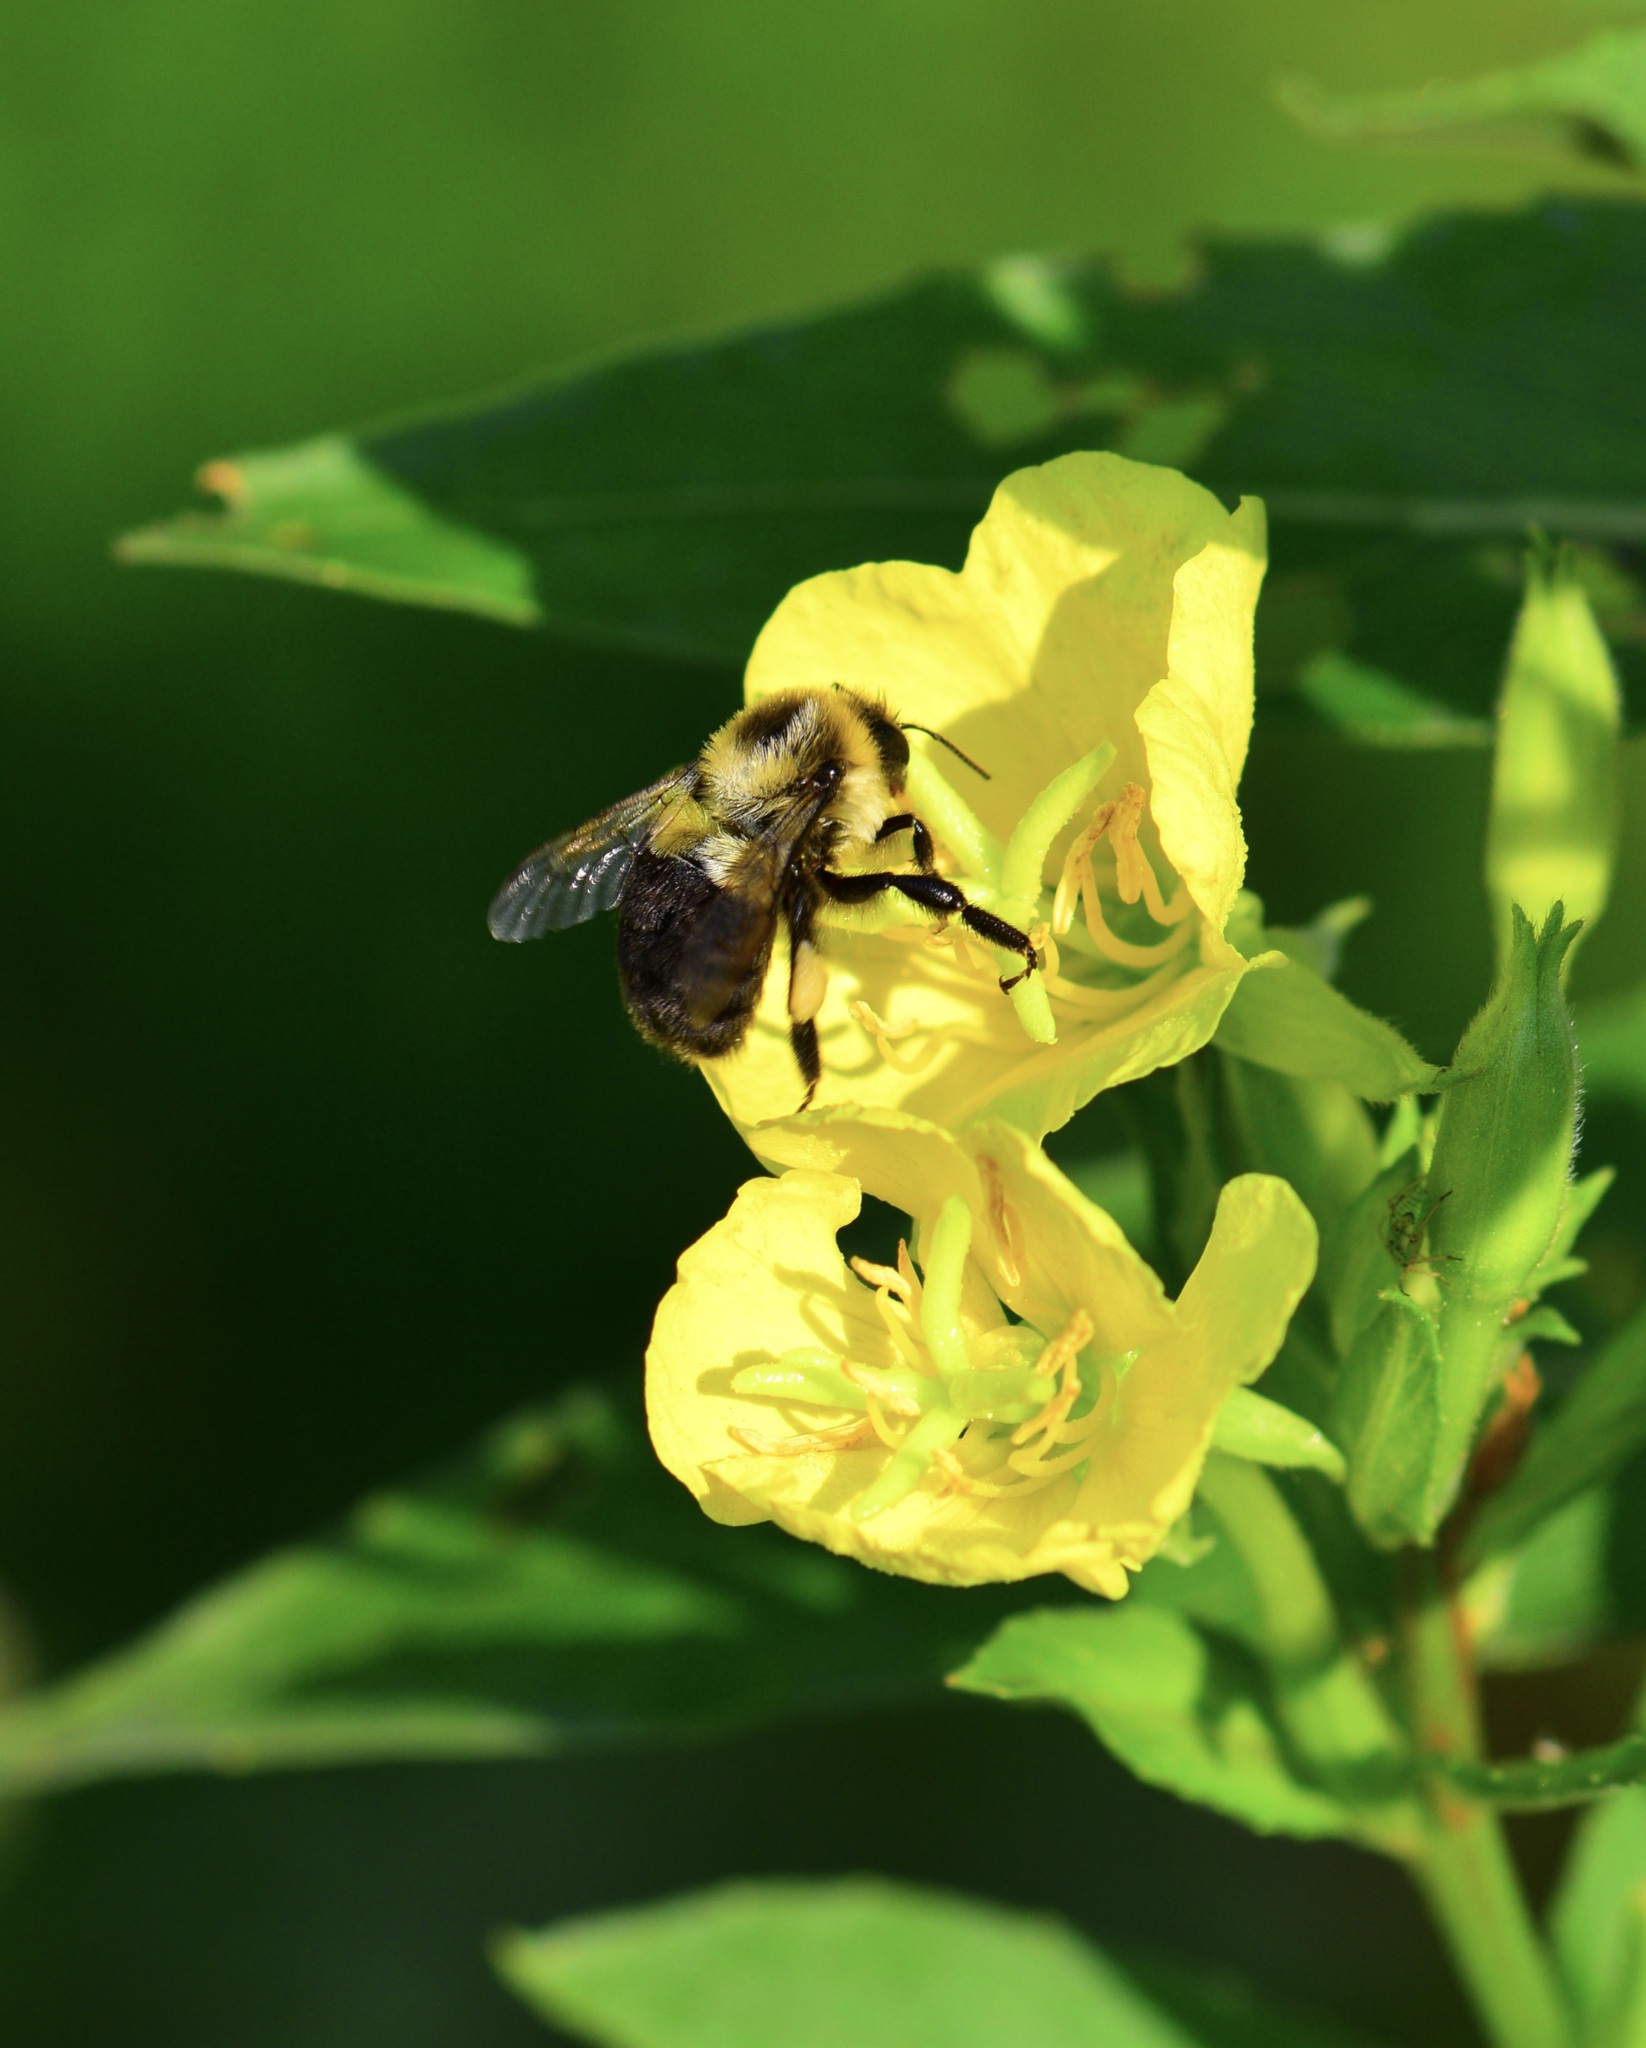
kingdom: Animalia
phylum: Arthropoda
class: Insecta
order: Hymenoptera
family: Apidae
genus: Bombus
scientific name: Bombus impatiens
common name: Common eastern bumble bee
